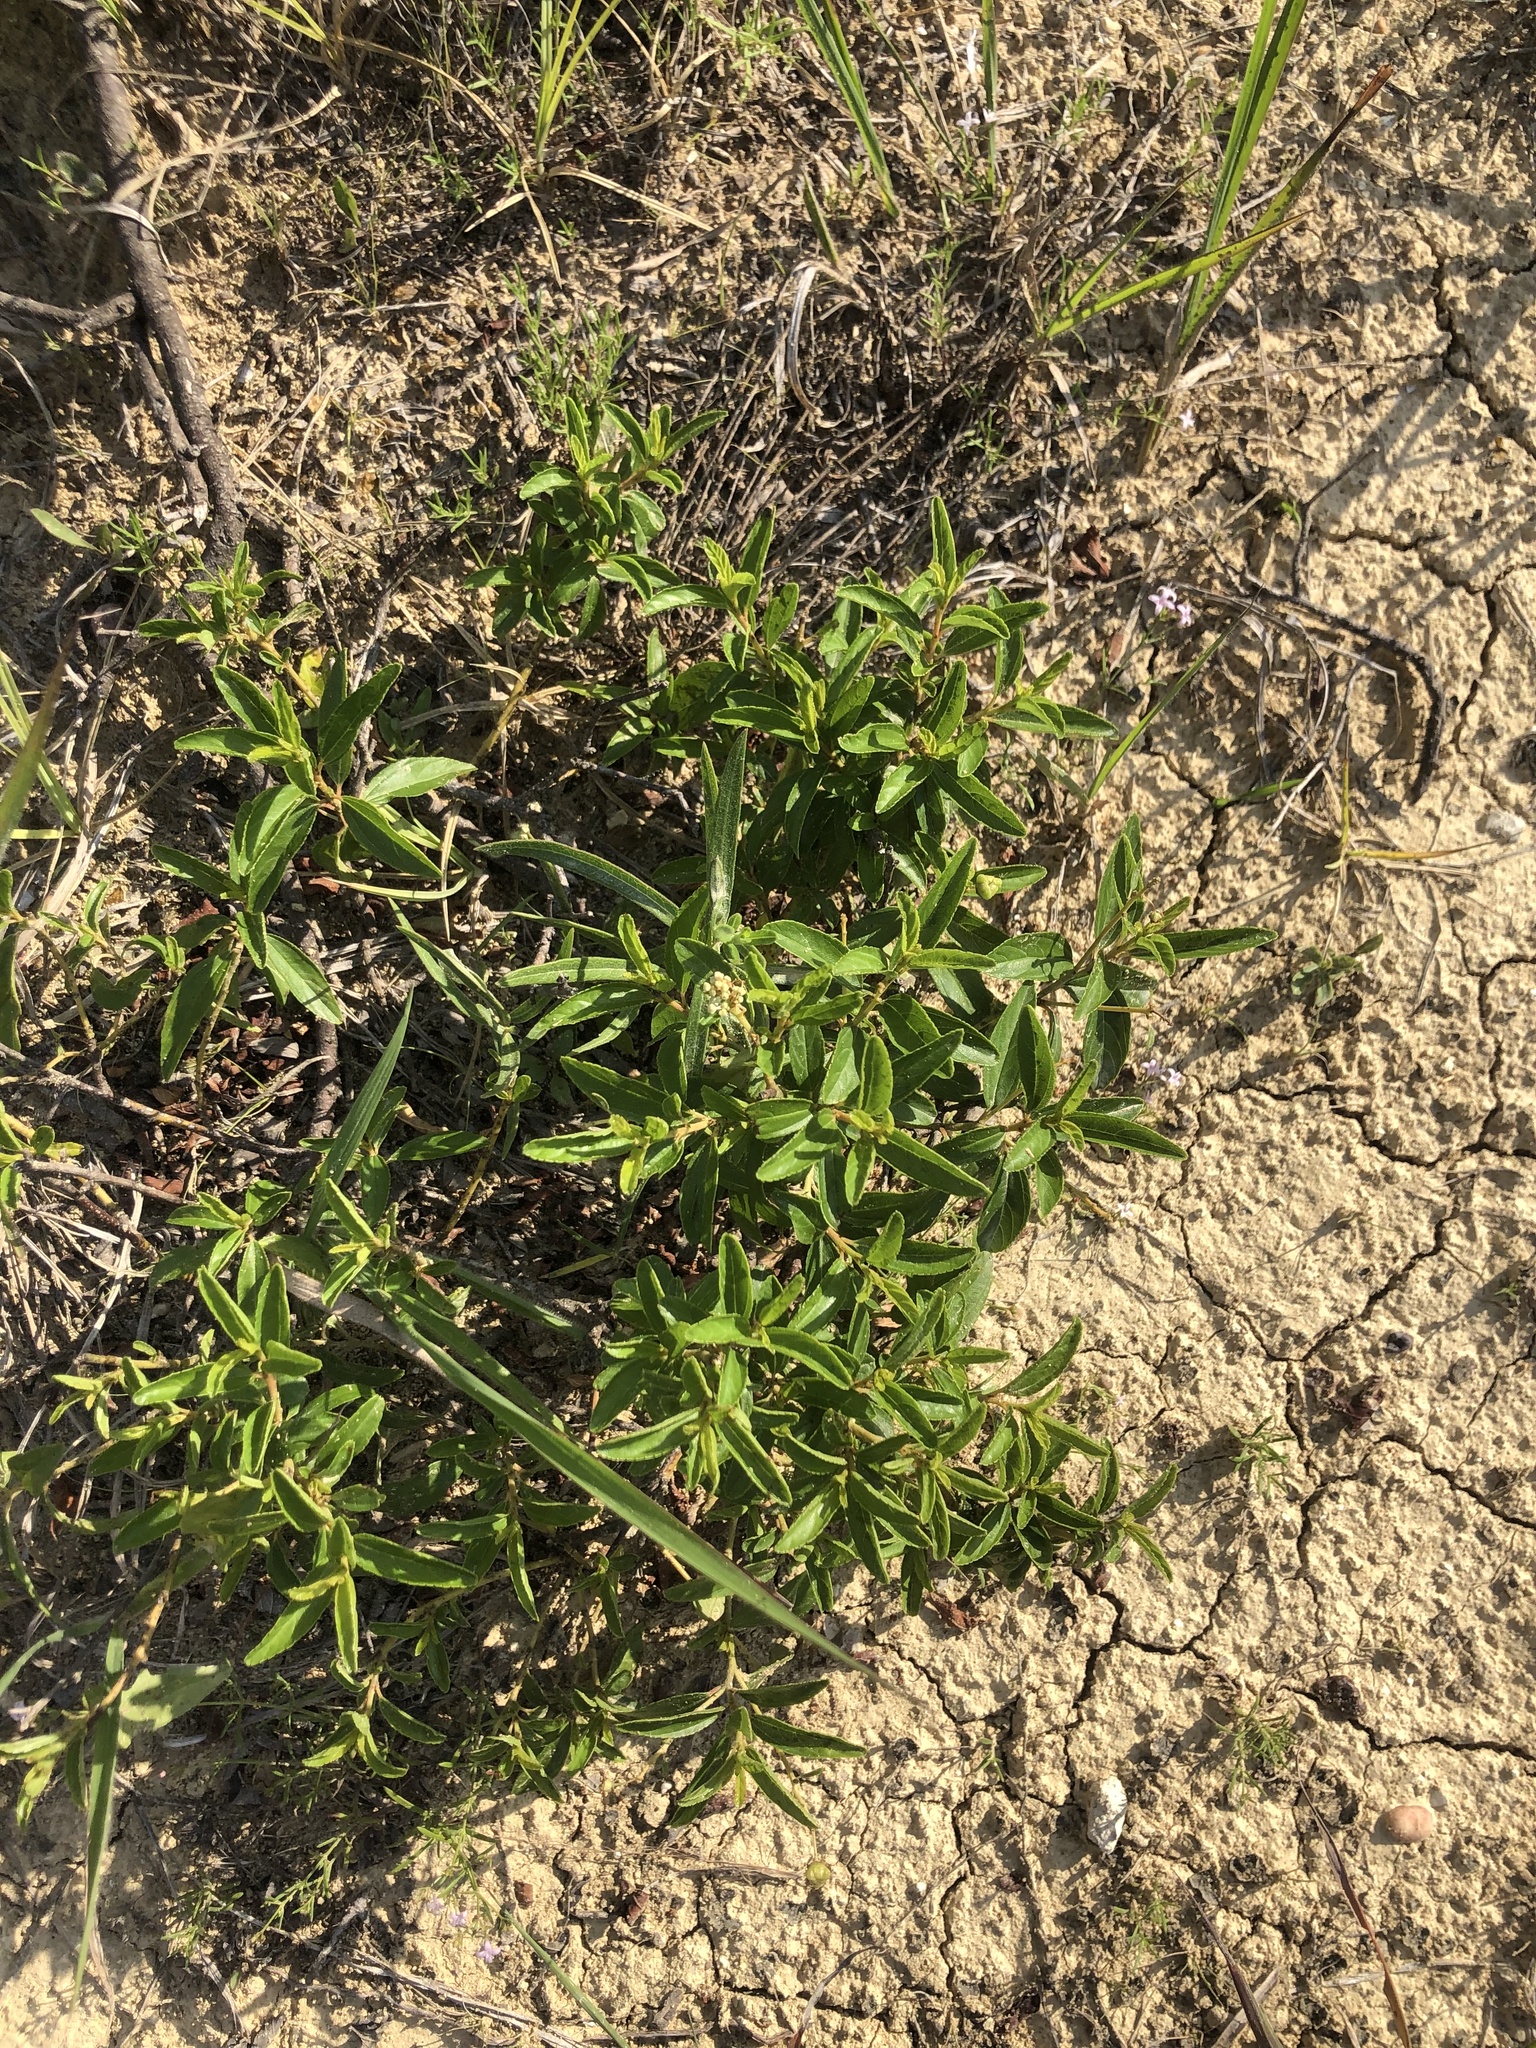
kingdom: Plantae
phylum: Tracheophyta
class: Magnoliopsida
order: Rosales
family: Rhamnaceae
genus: Ceanothus
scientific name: Ceanothus americanus
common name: Redroot
